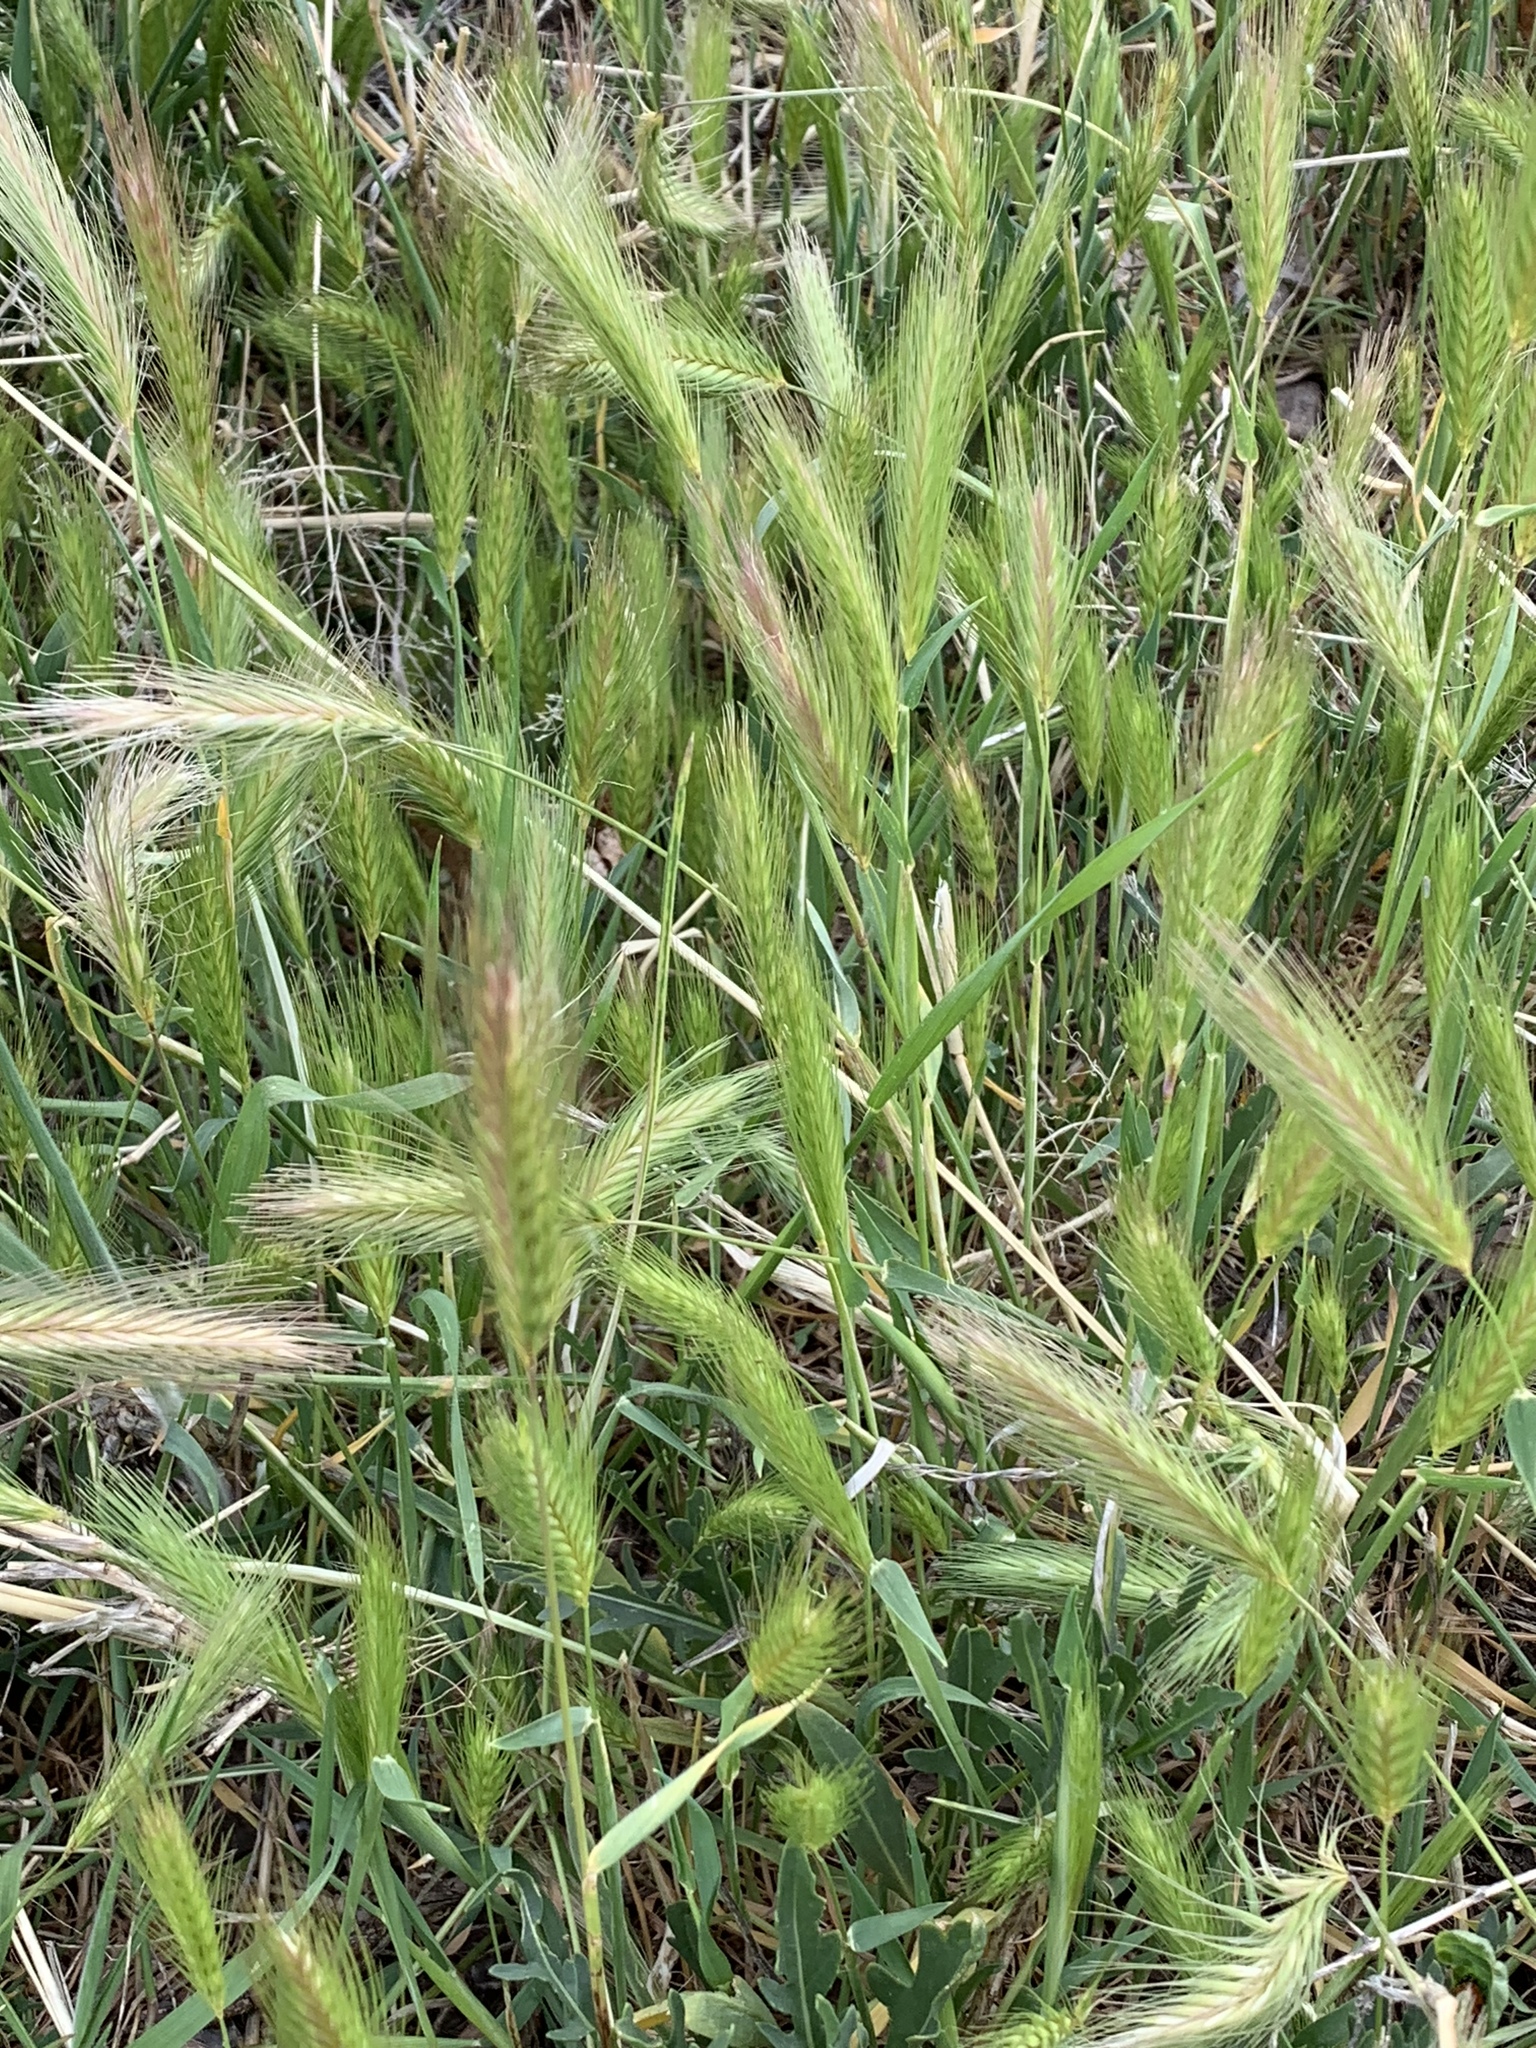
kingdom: Plantae
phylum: Tracheophyta
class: Liliopsida
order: Poales
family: Poaceae
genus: Hordeum
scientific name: Hordeum murinum
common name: Wall barley
